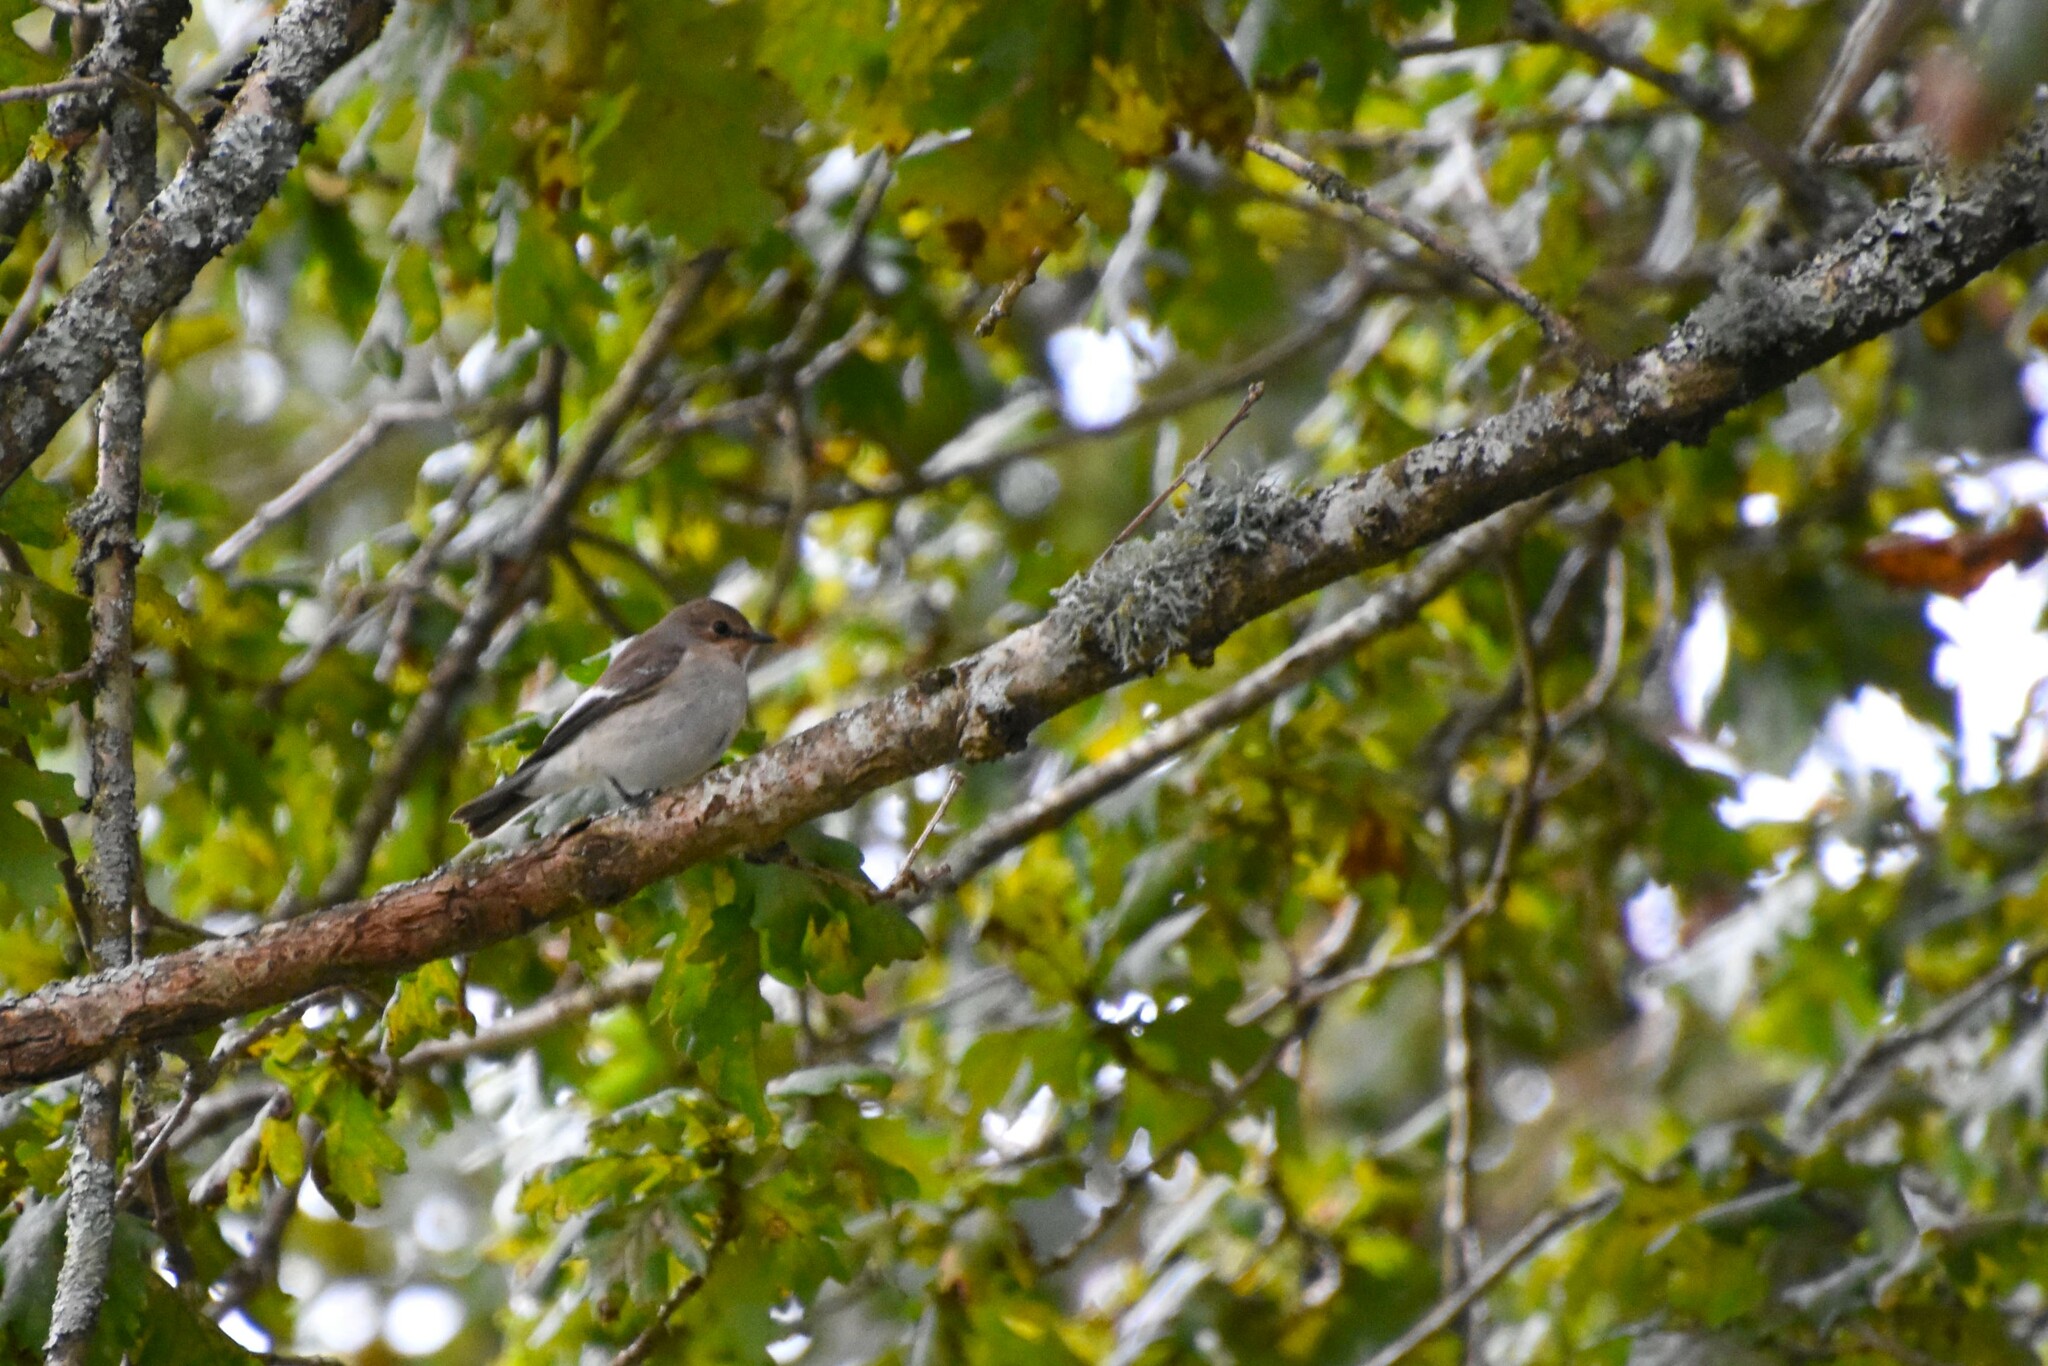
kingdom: Animalia
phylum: Chordata
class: Aves
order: Passeriformes
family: Muscicapidae
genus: Ficedula
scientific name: Ficedula hypoleuca
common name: European pied flycatcher
